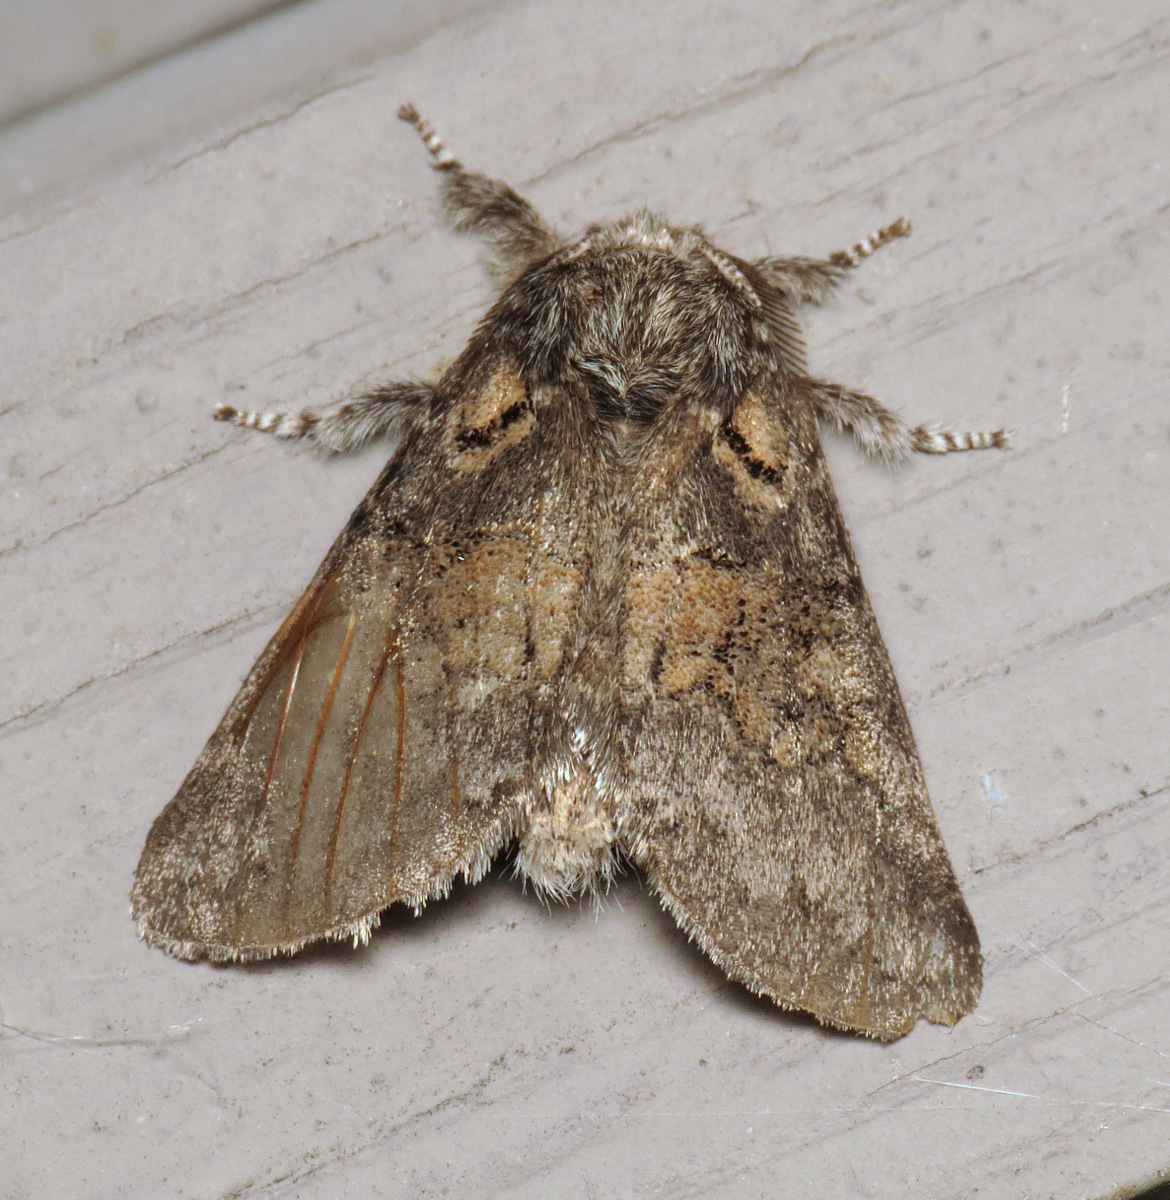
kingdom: Animalia
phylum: Arthropoda
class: Insecta
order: Lepidoptera
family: Notodontidae
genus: Gluphisia
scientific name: Gluphisia septentrionis
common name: Common gluphisia
